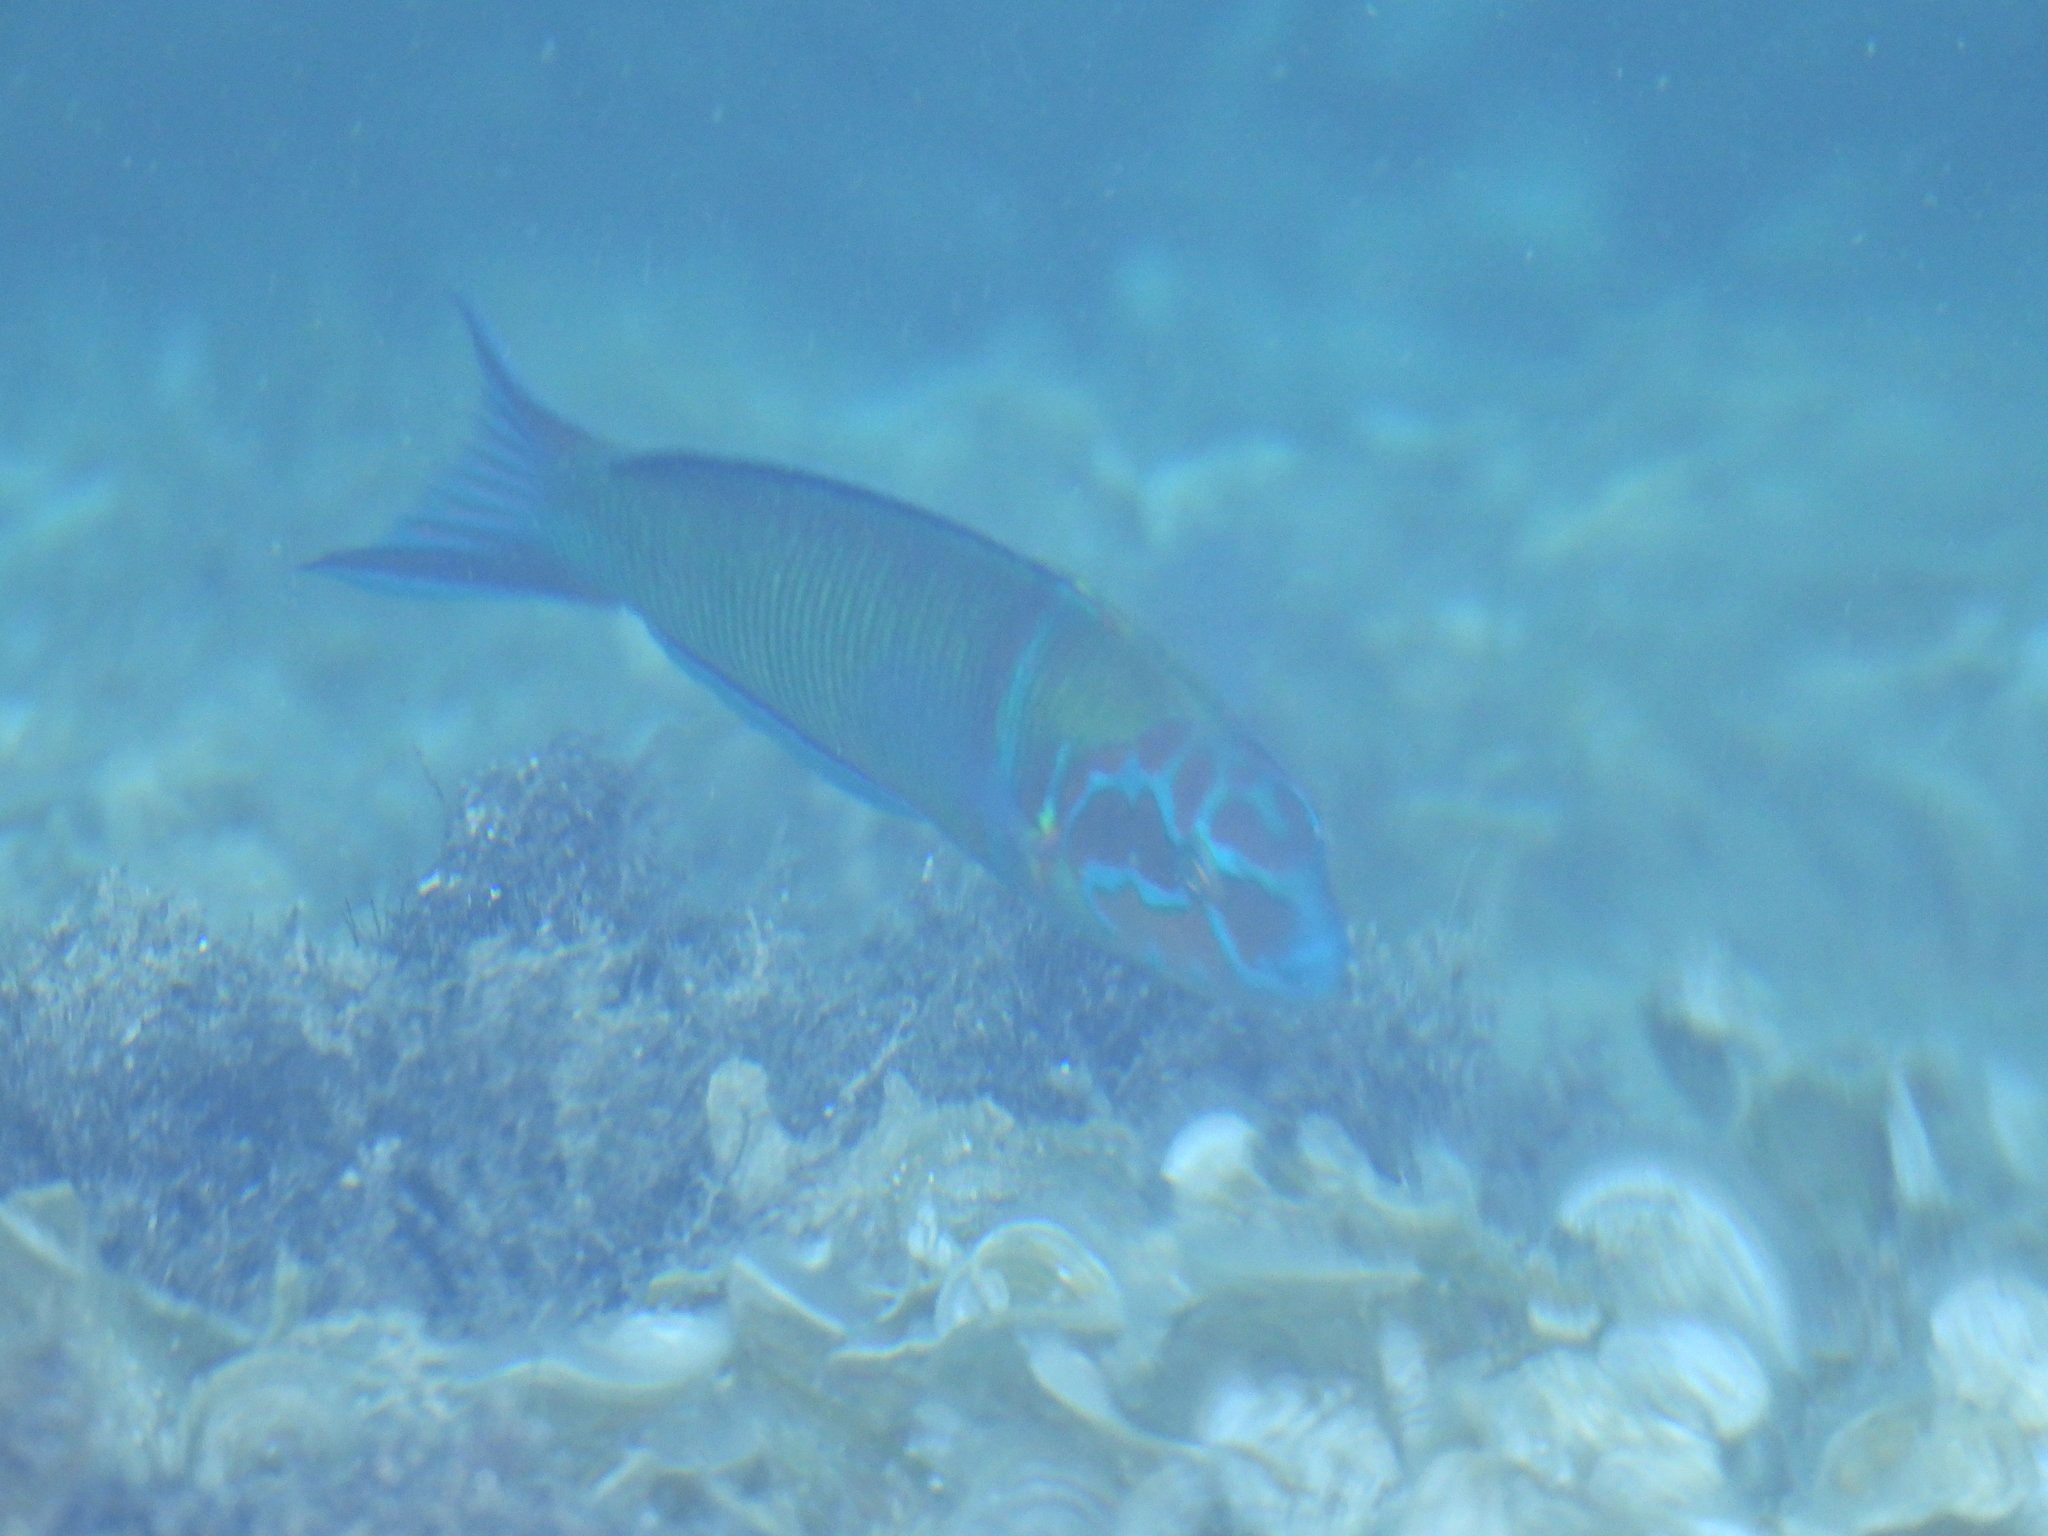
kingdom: Animalia
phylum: Chordata
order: Perciformes
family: Labridae
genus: Thalassoma
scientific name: Thalassoma pavo
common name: Ornate wrasse
